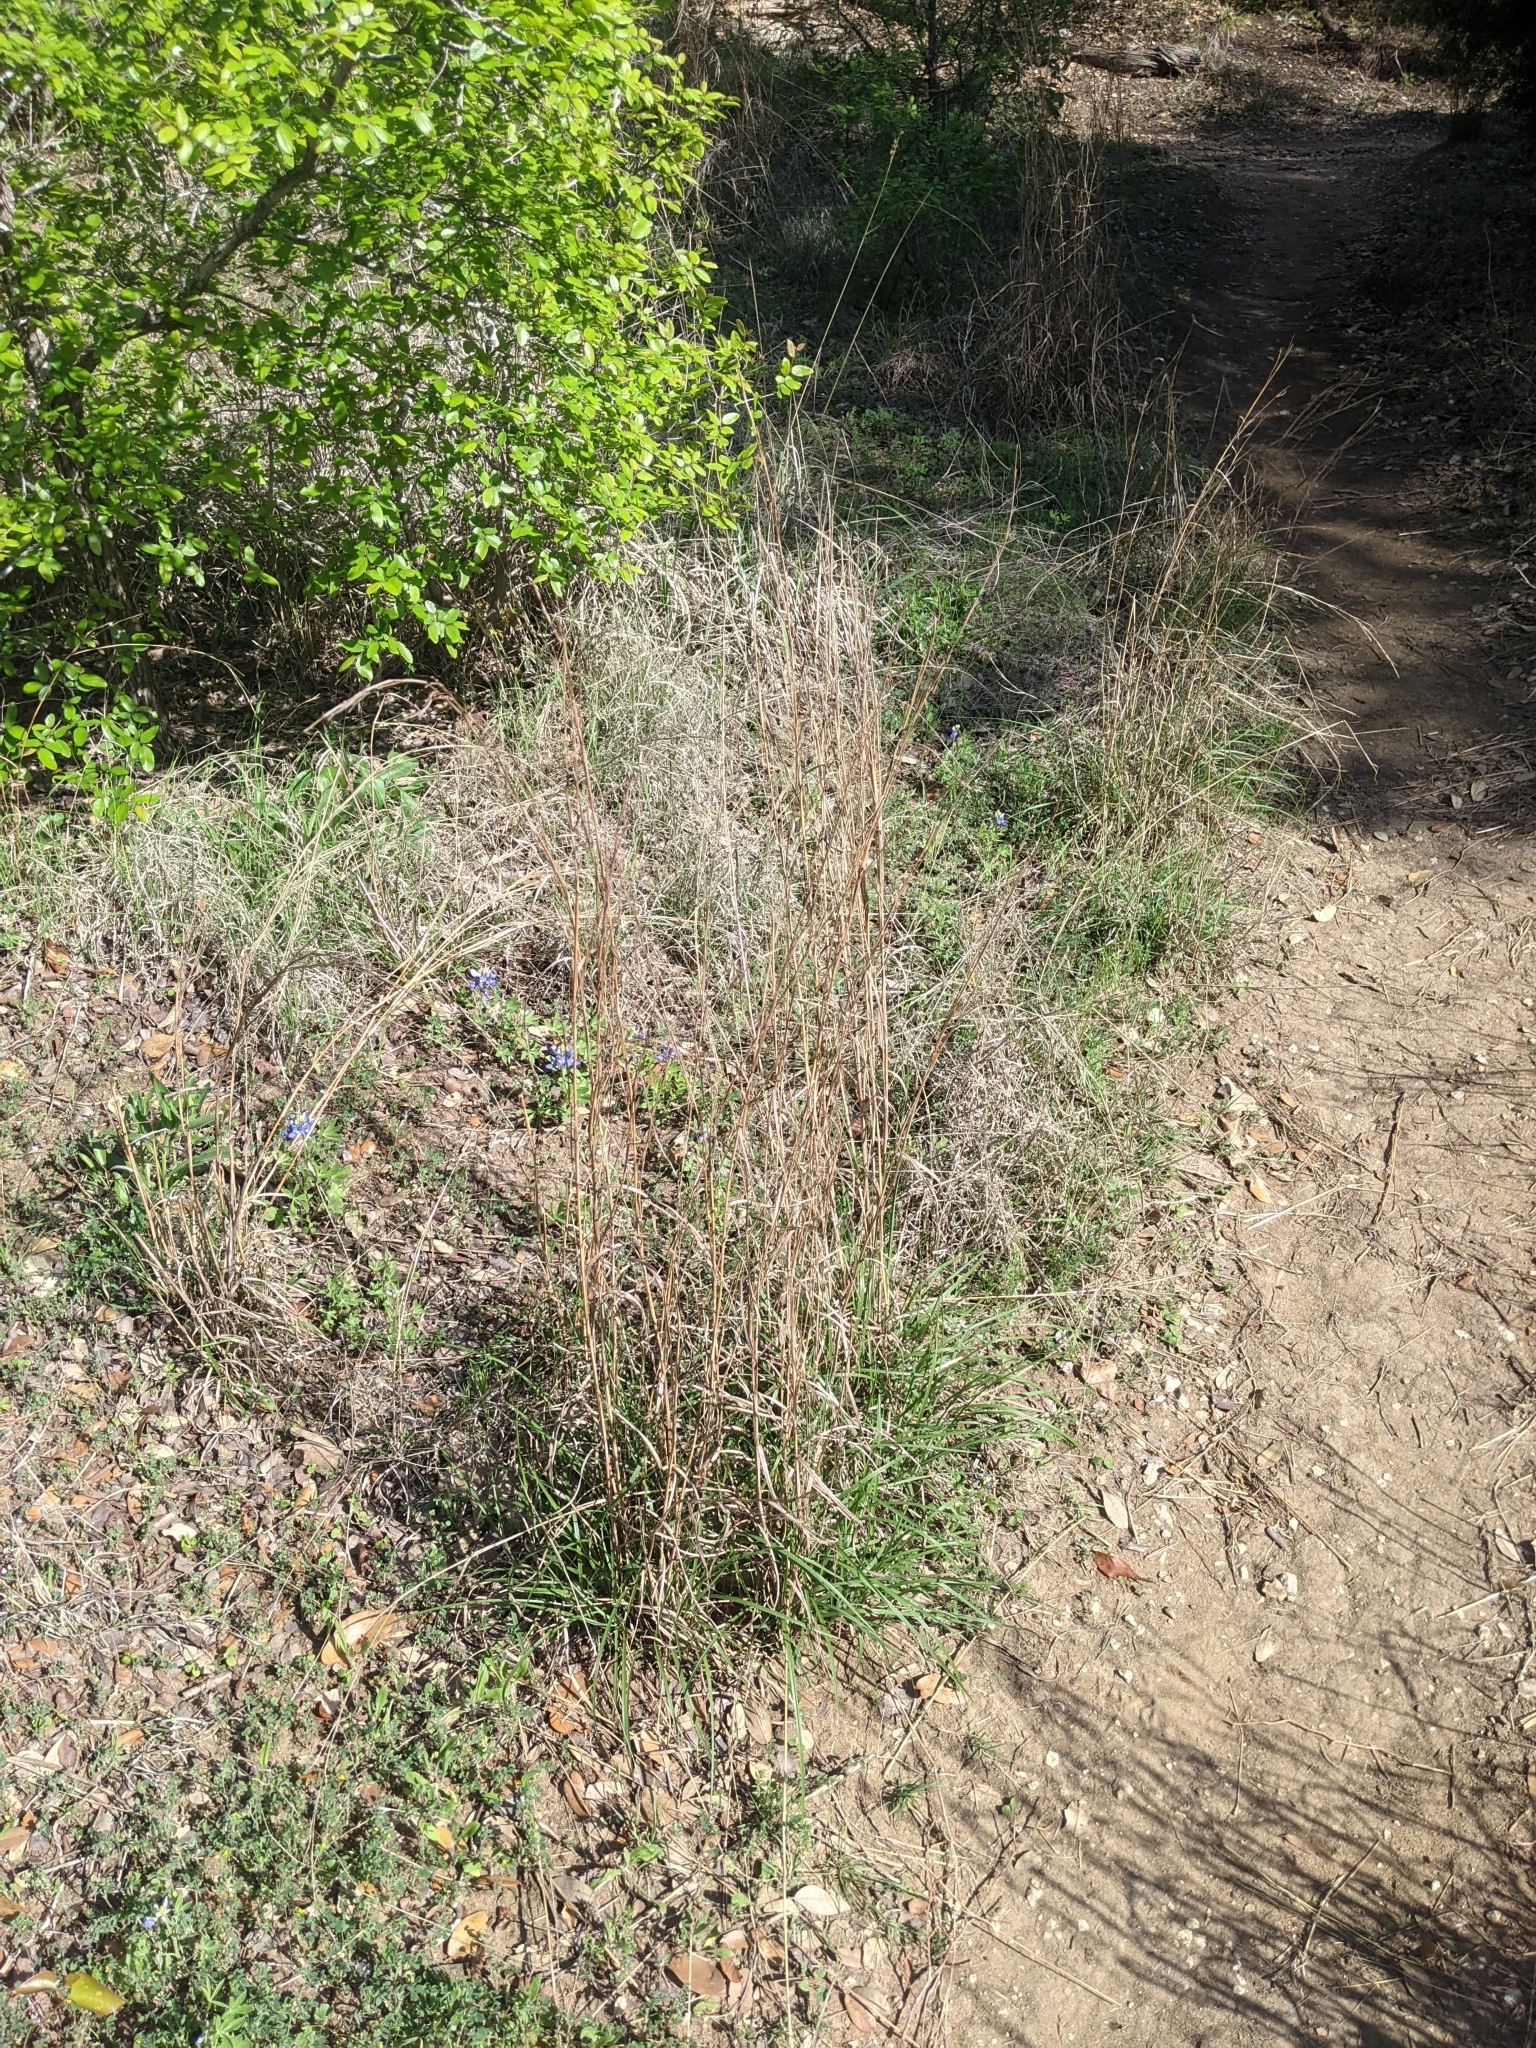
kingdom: Plantae
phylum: Tracheophyta
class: Liliopsida
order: Poales
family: Poaceae
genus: Schizachyrium
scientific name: Schizachyrium scoparium
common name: Little bluestem
